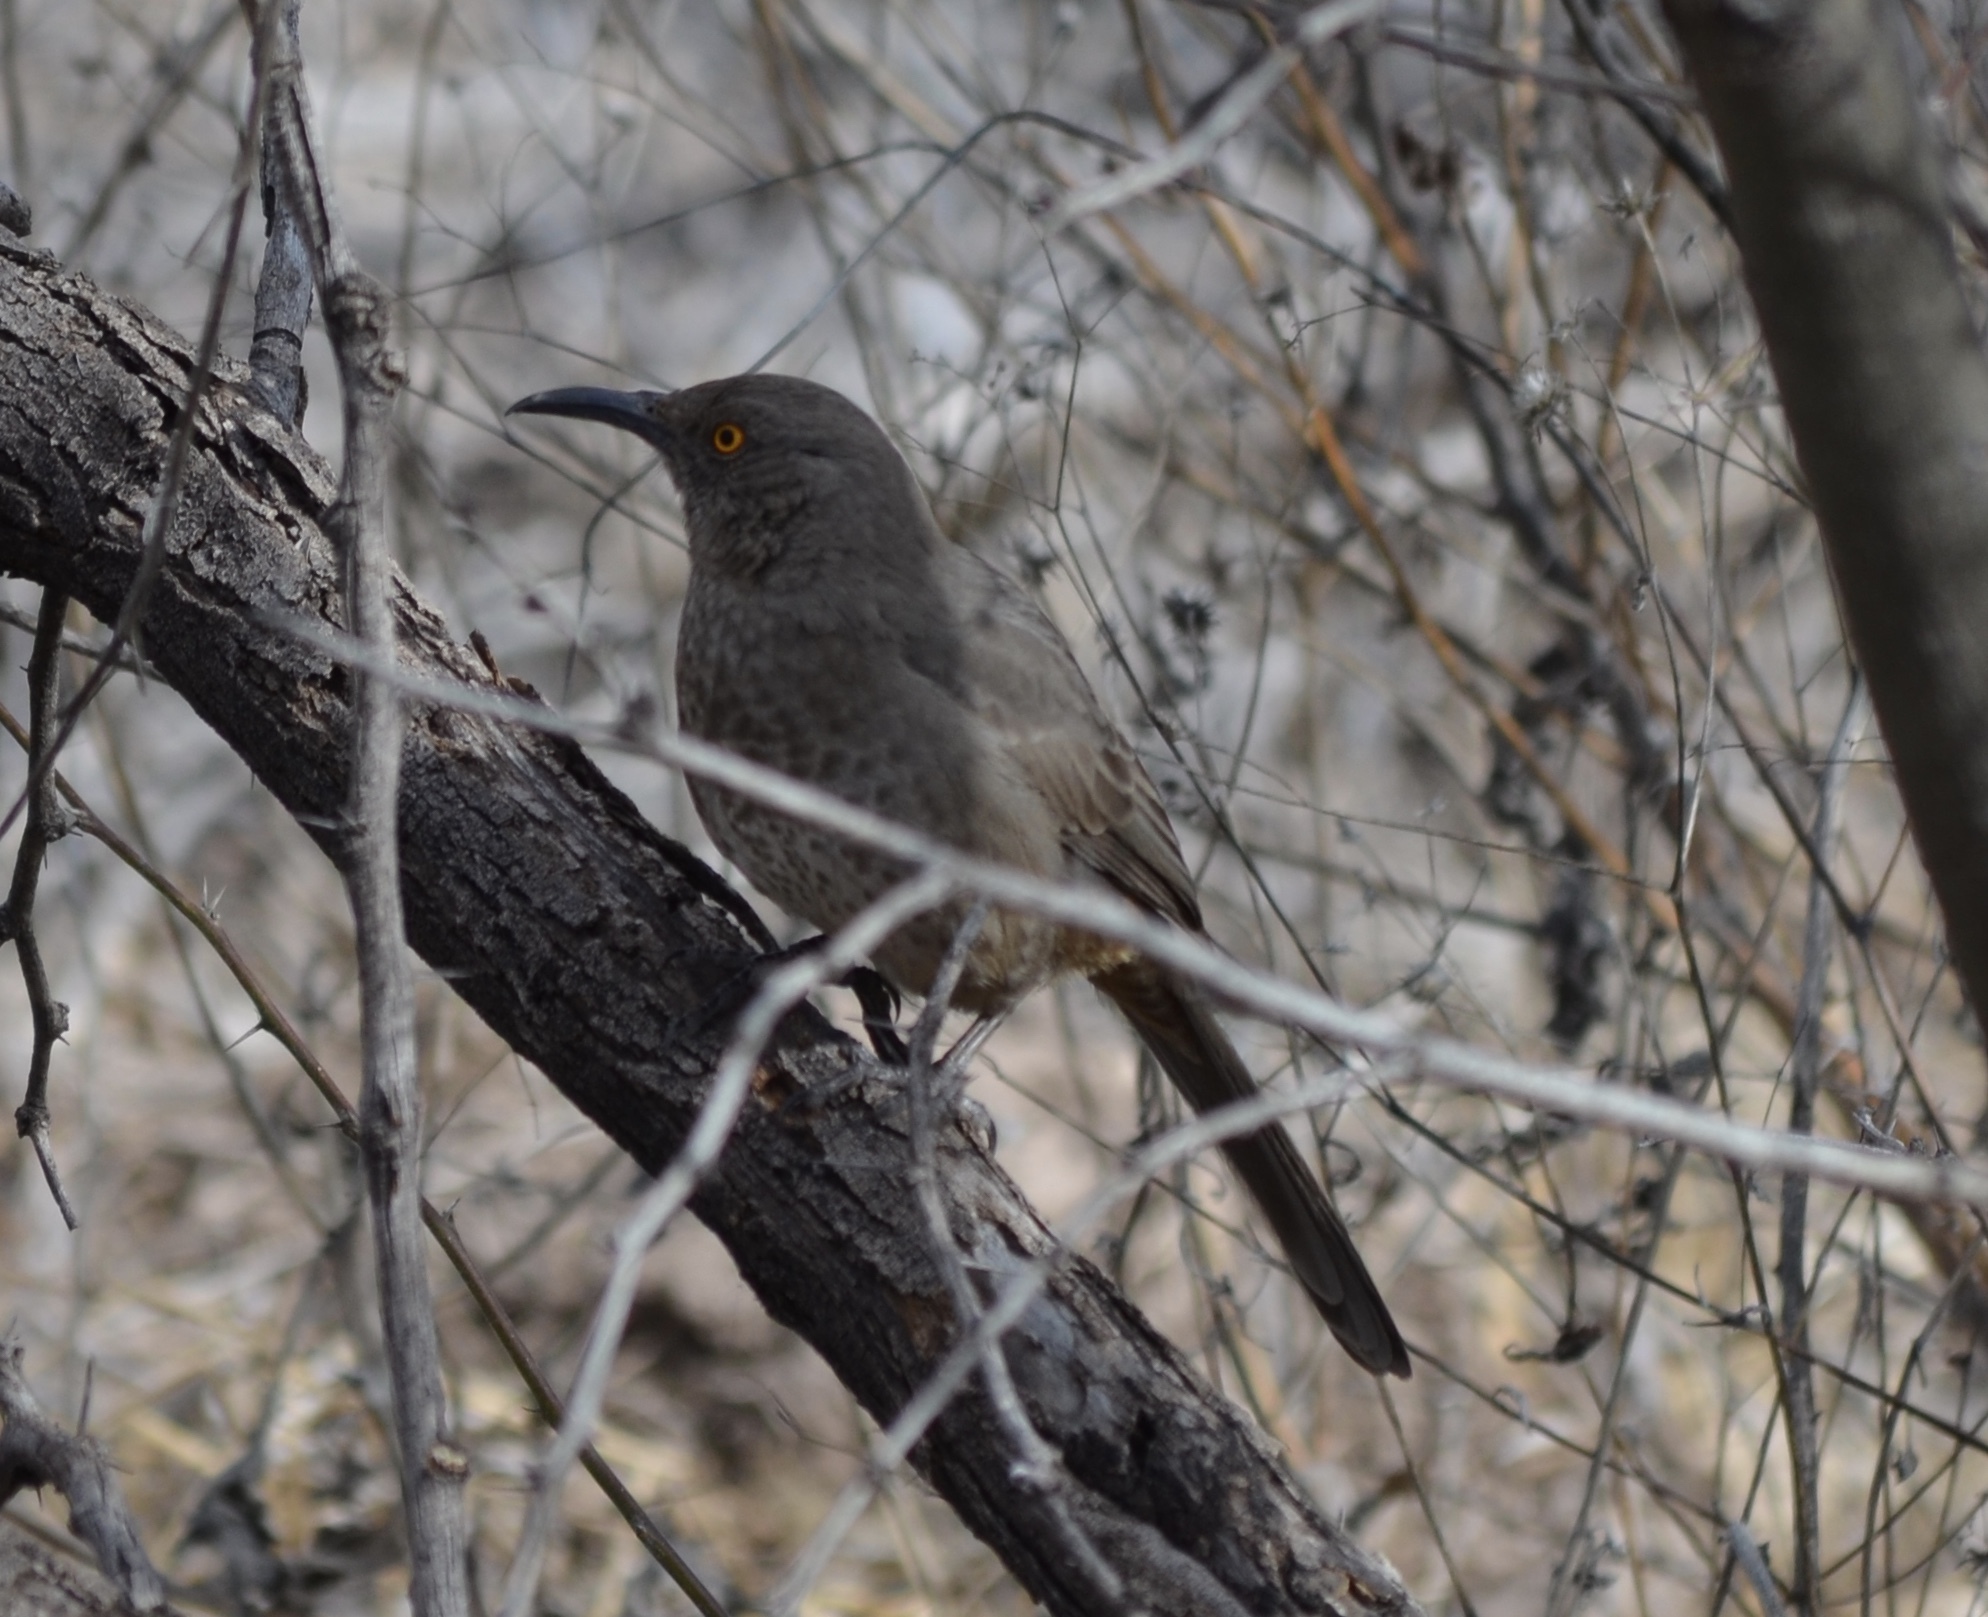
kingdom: Animalia
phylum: Chordata
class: Aves
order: Passeriformes
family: Mimidae
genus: Toxostoma
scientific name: Toxostoma curvirostre
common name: Curve-billed thrasher
